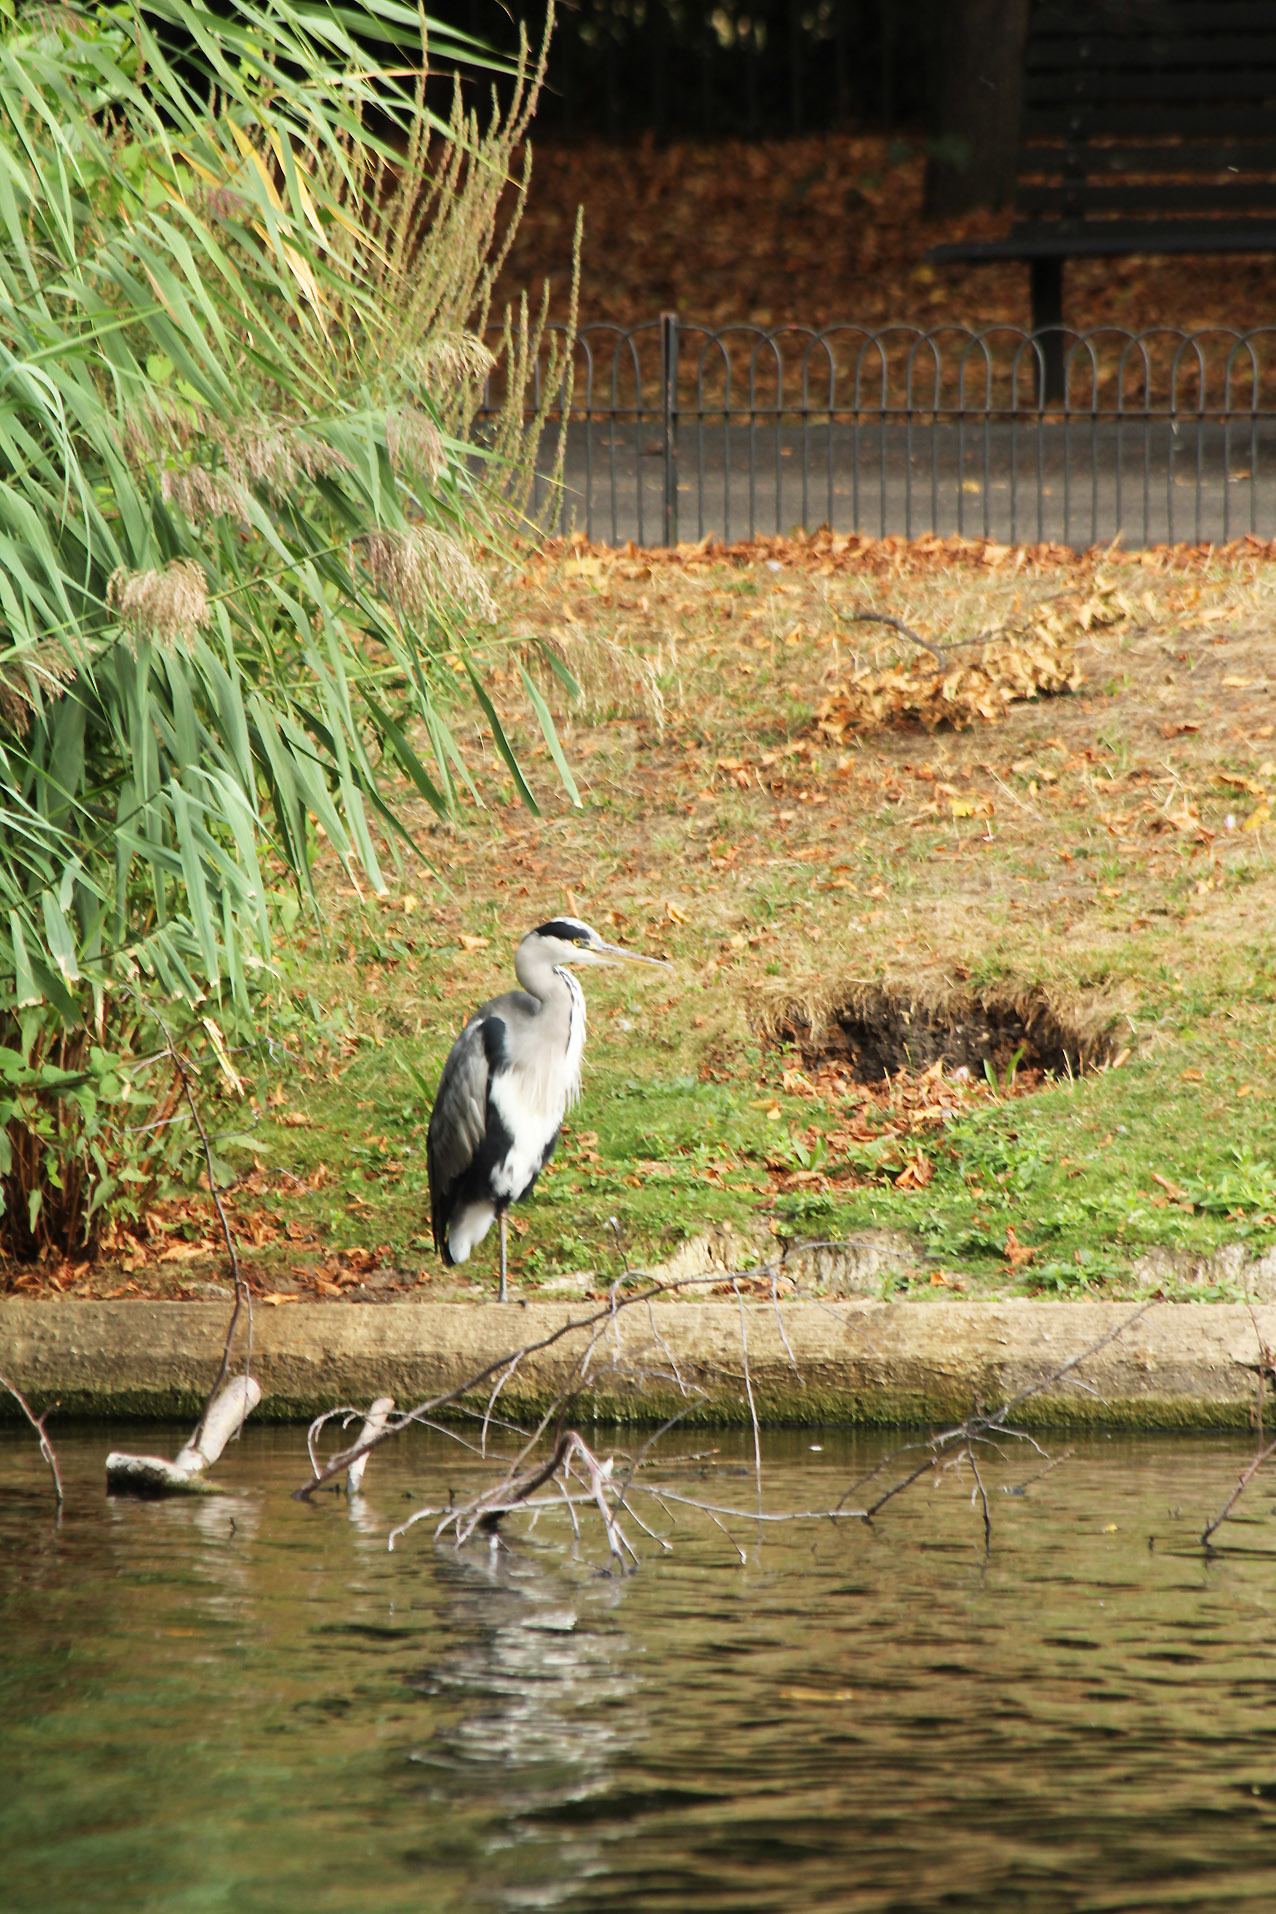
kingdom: Animalia
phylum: Chordata
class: Aves
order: Pelecaniformes
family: Ardeidae
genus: Ardea
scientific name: Ardea cinerea
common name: Grey heron
